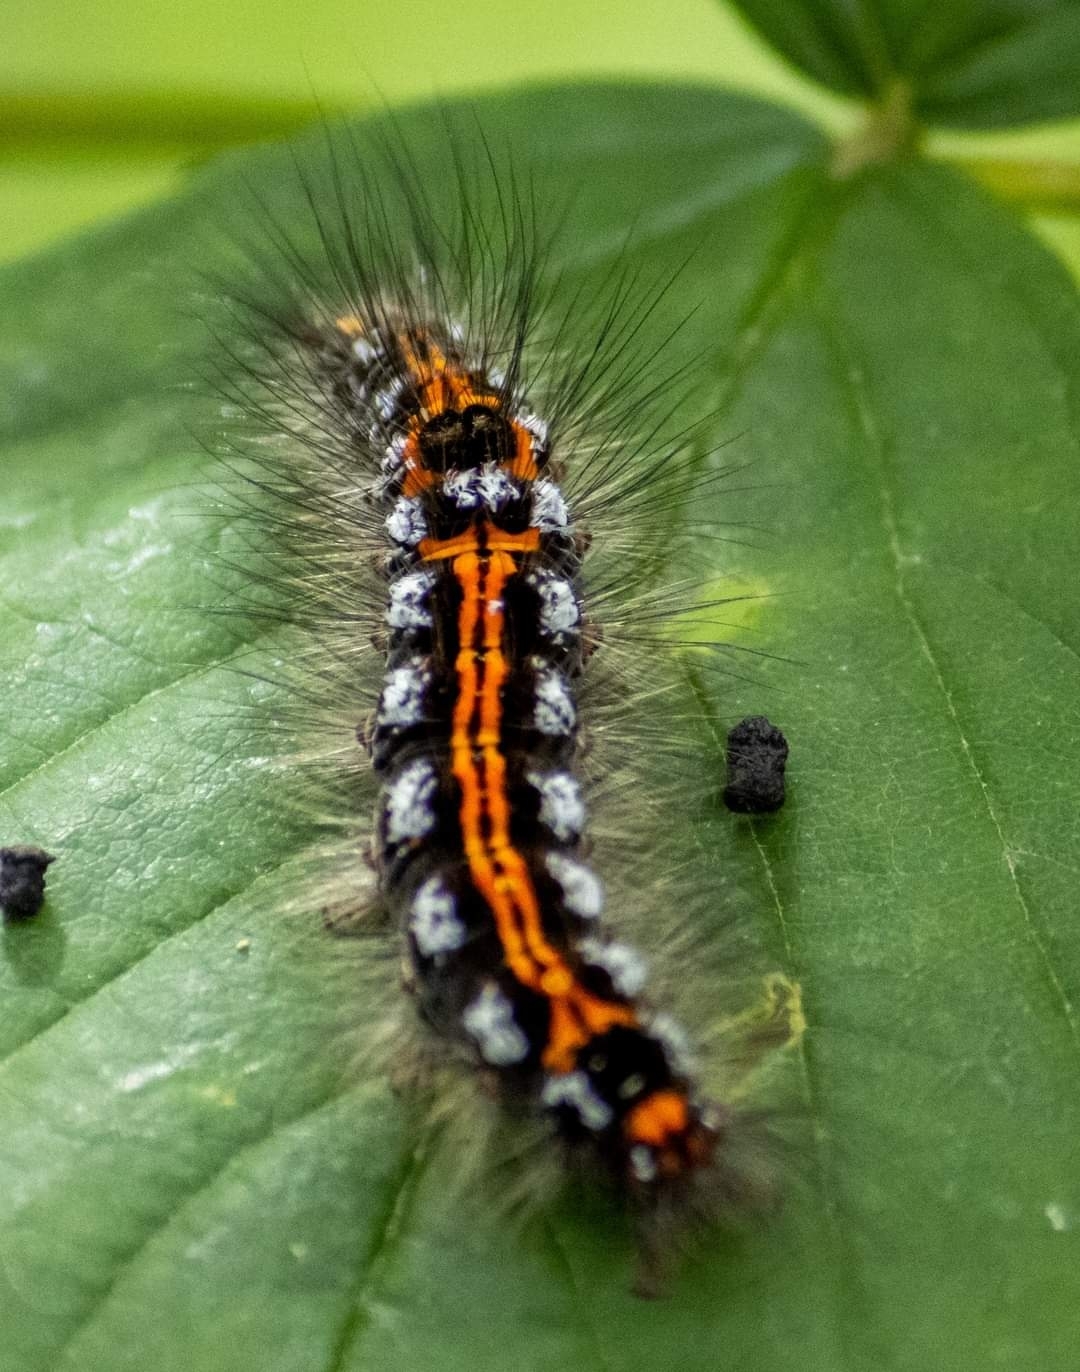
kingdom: Animalia
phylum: Arthropoda
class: Insecta
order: Lepidoptera
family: Erebidae
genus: Sphrageidus
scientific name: Sphrageidus similis
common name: Yellow-tail
